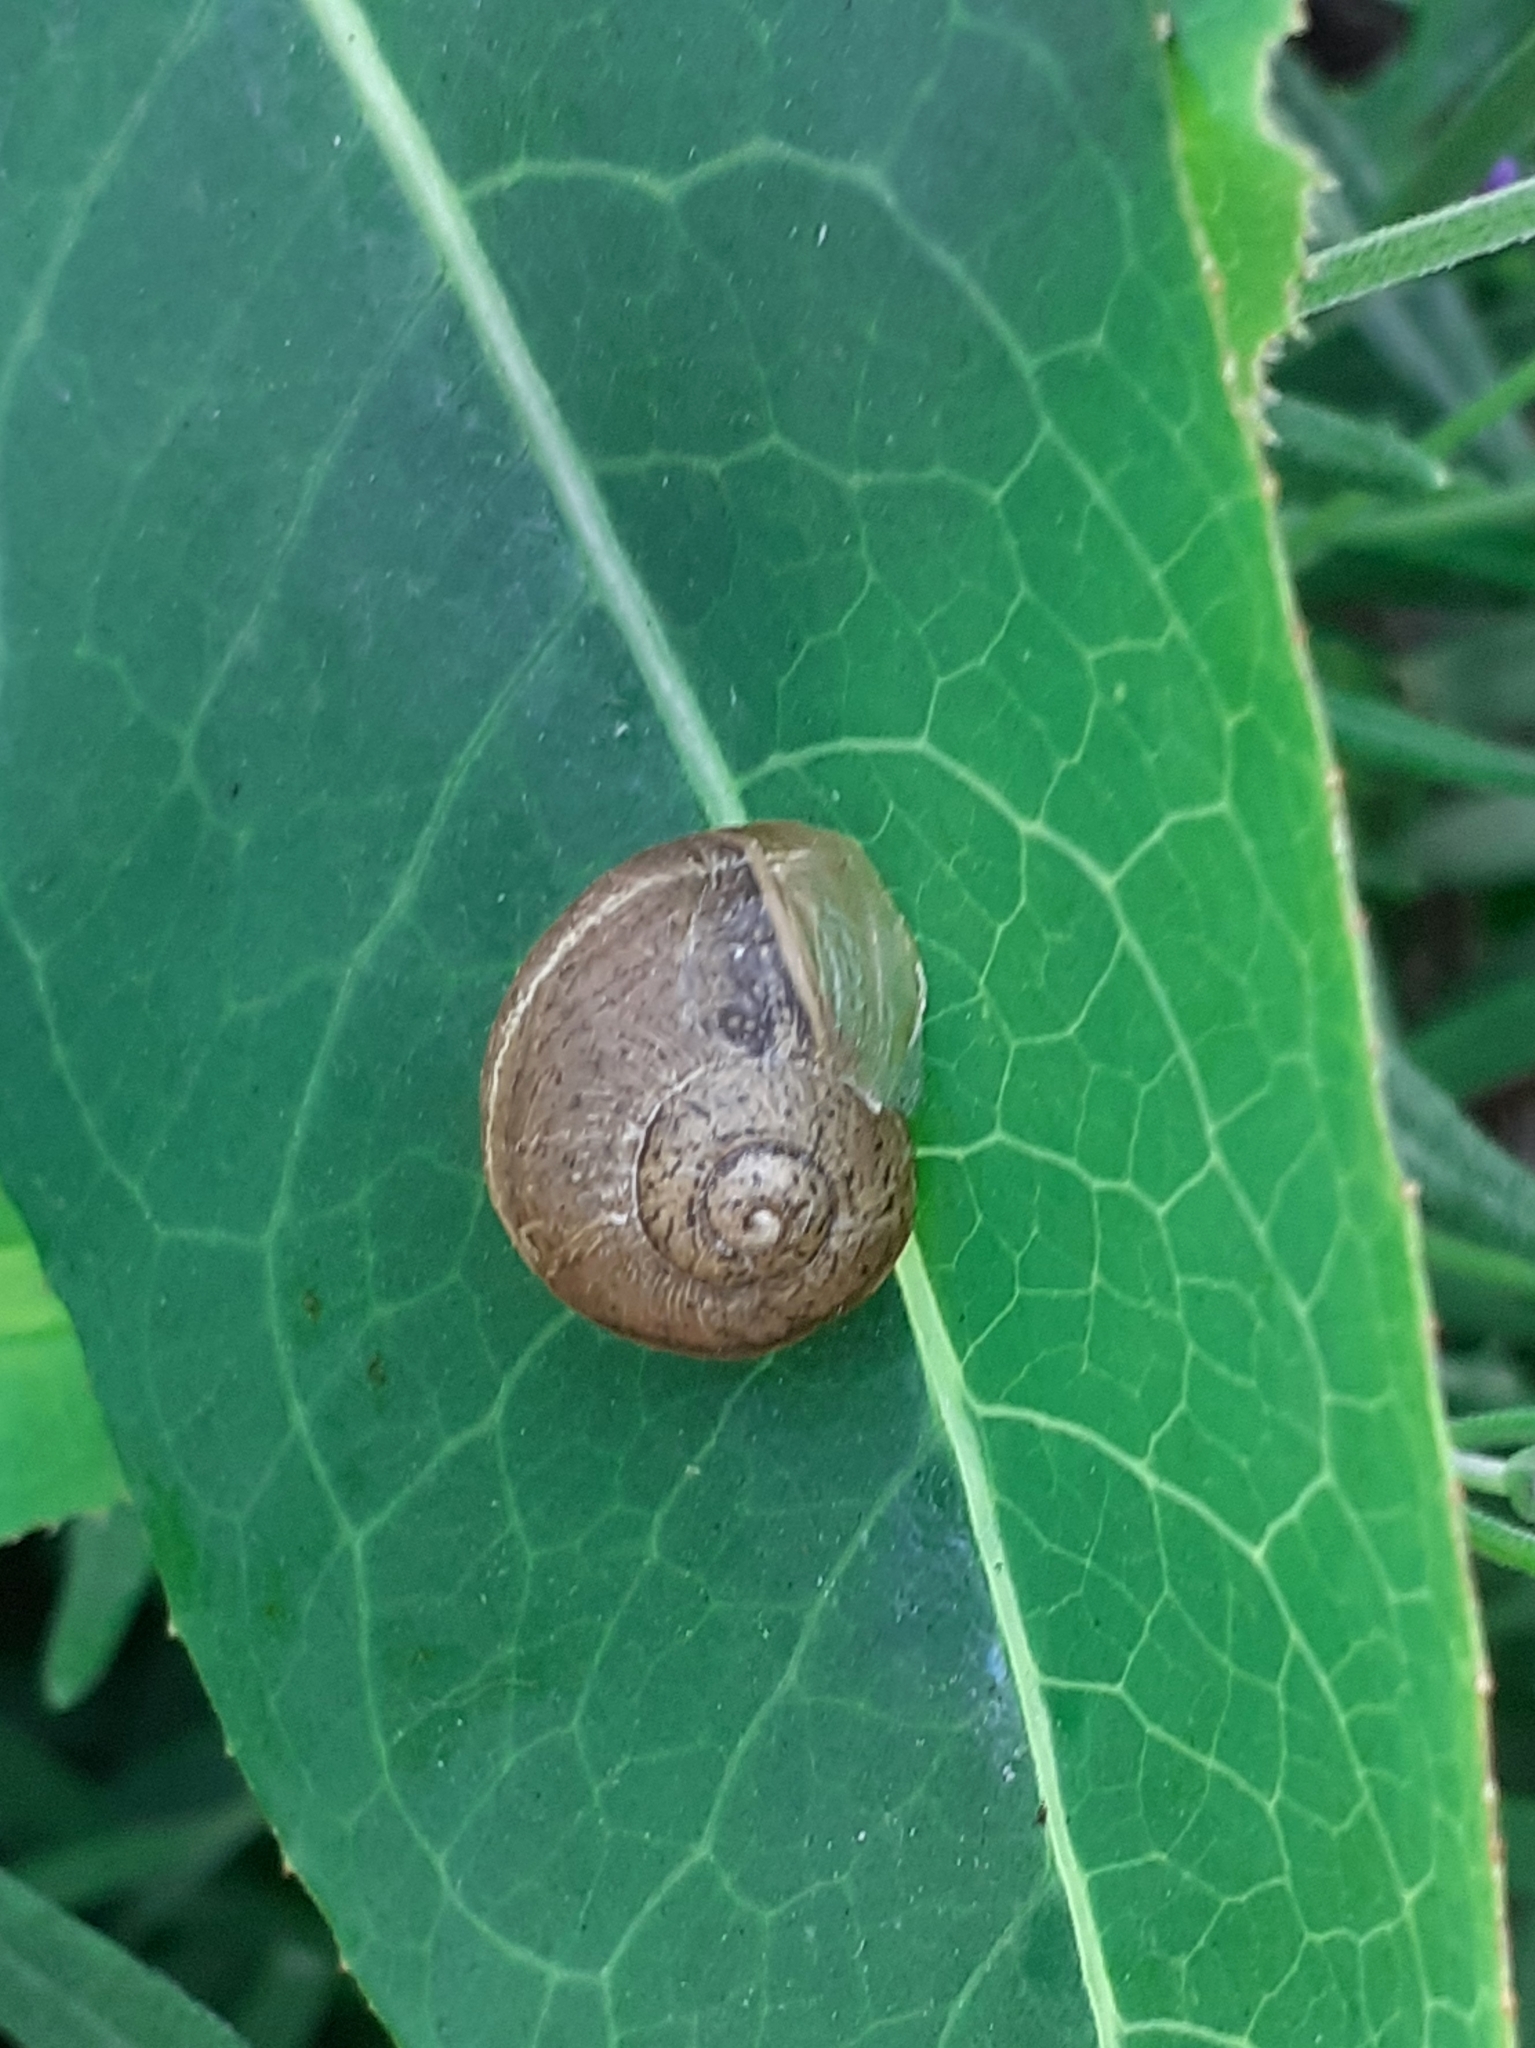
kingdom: Animalia
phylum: Mollusca
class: Gastropoda
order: Stylommatophora
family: Helicidae
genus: Cornu
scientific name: Cornu aspersum
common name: Brown garden snail
